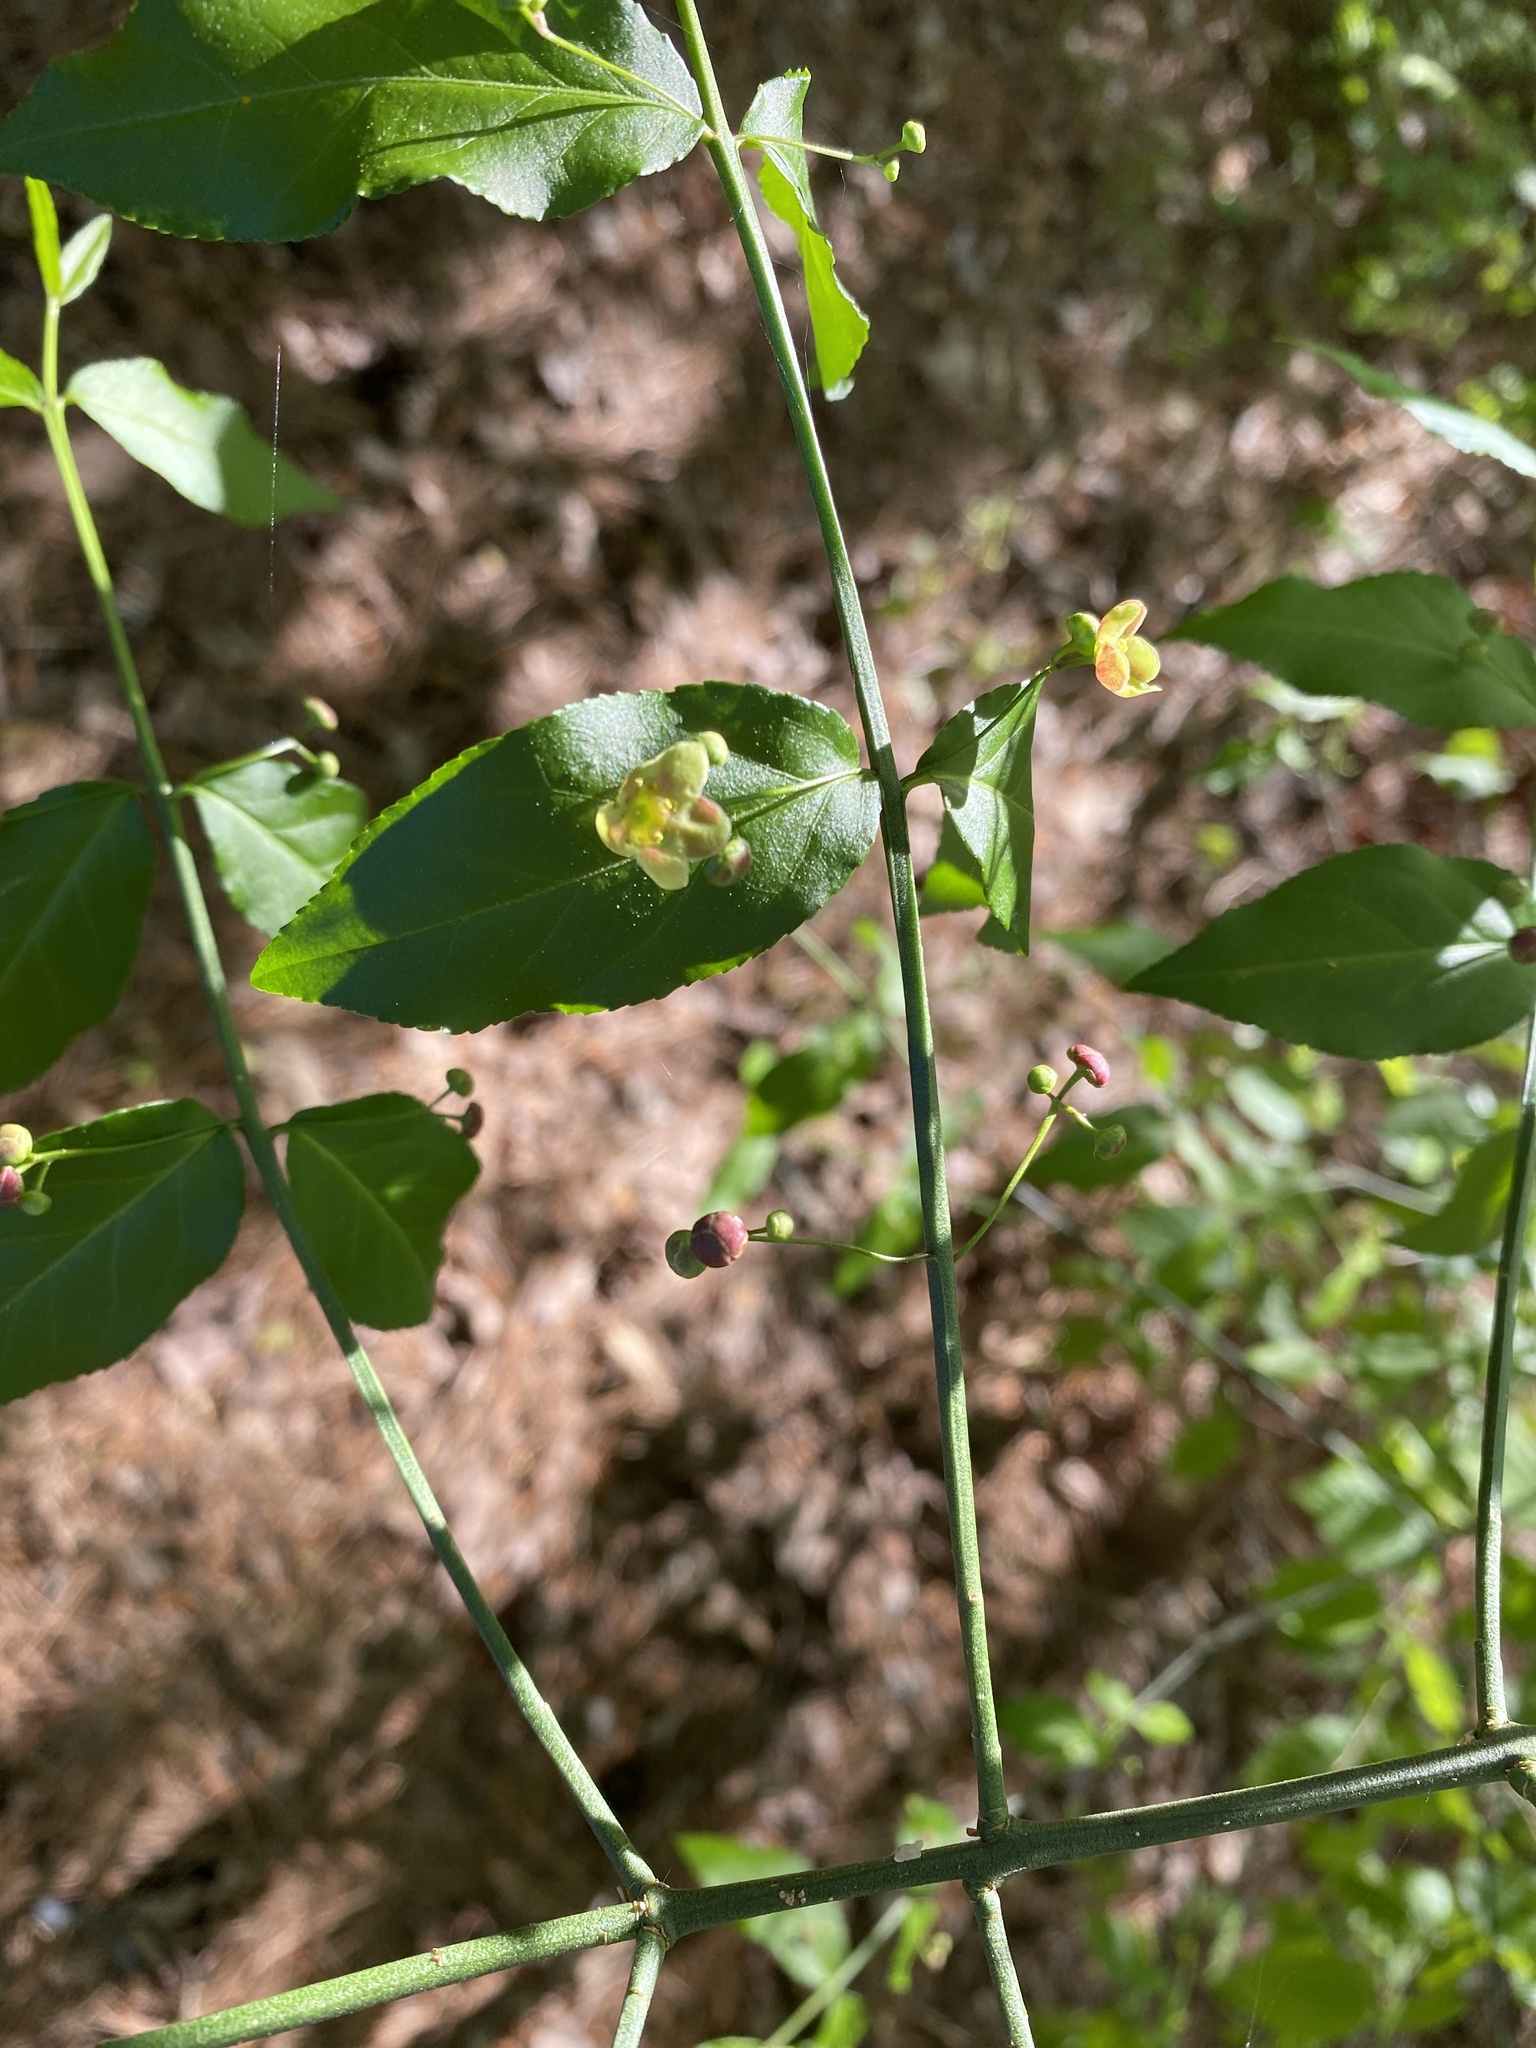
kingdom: Plantae
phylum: Tracheophyta
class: Magnoliopsida
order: Celastrales
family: Celastraceae
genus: Euonymus
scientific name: Euonymus americanus
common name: Bursting-heart
